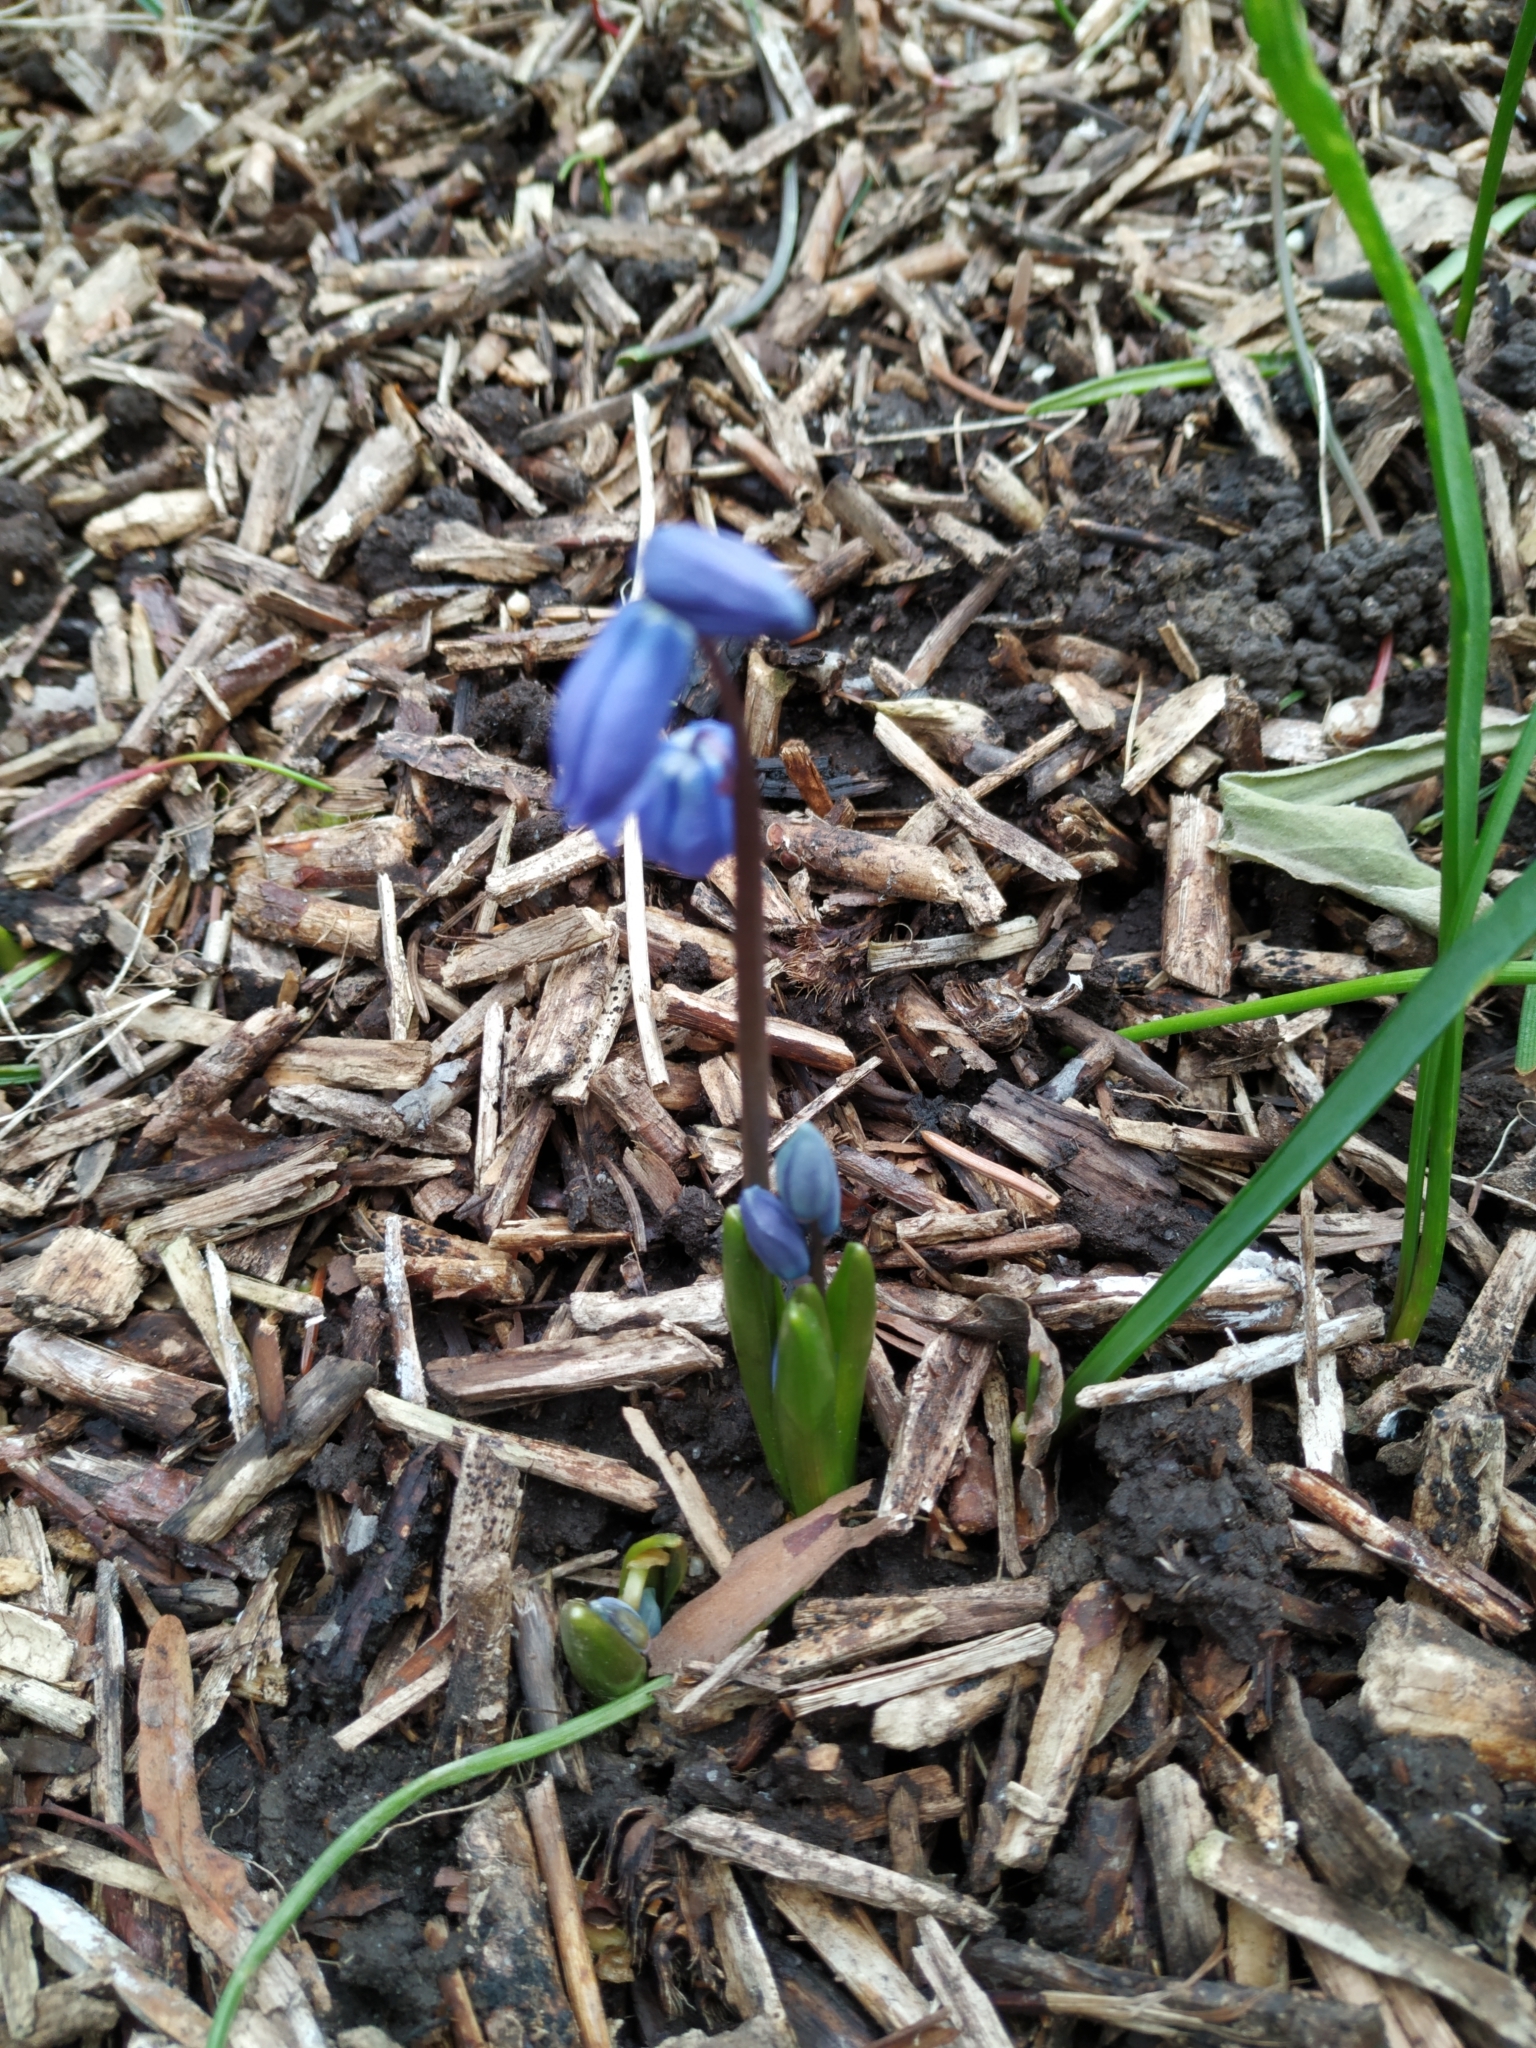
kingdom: Plantae
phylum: Tracheophyta
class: Liliopsida
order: Asparagales
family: Asparagaceae
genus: Scilla
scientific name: Scilla siberica
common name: Siberian squill
